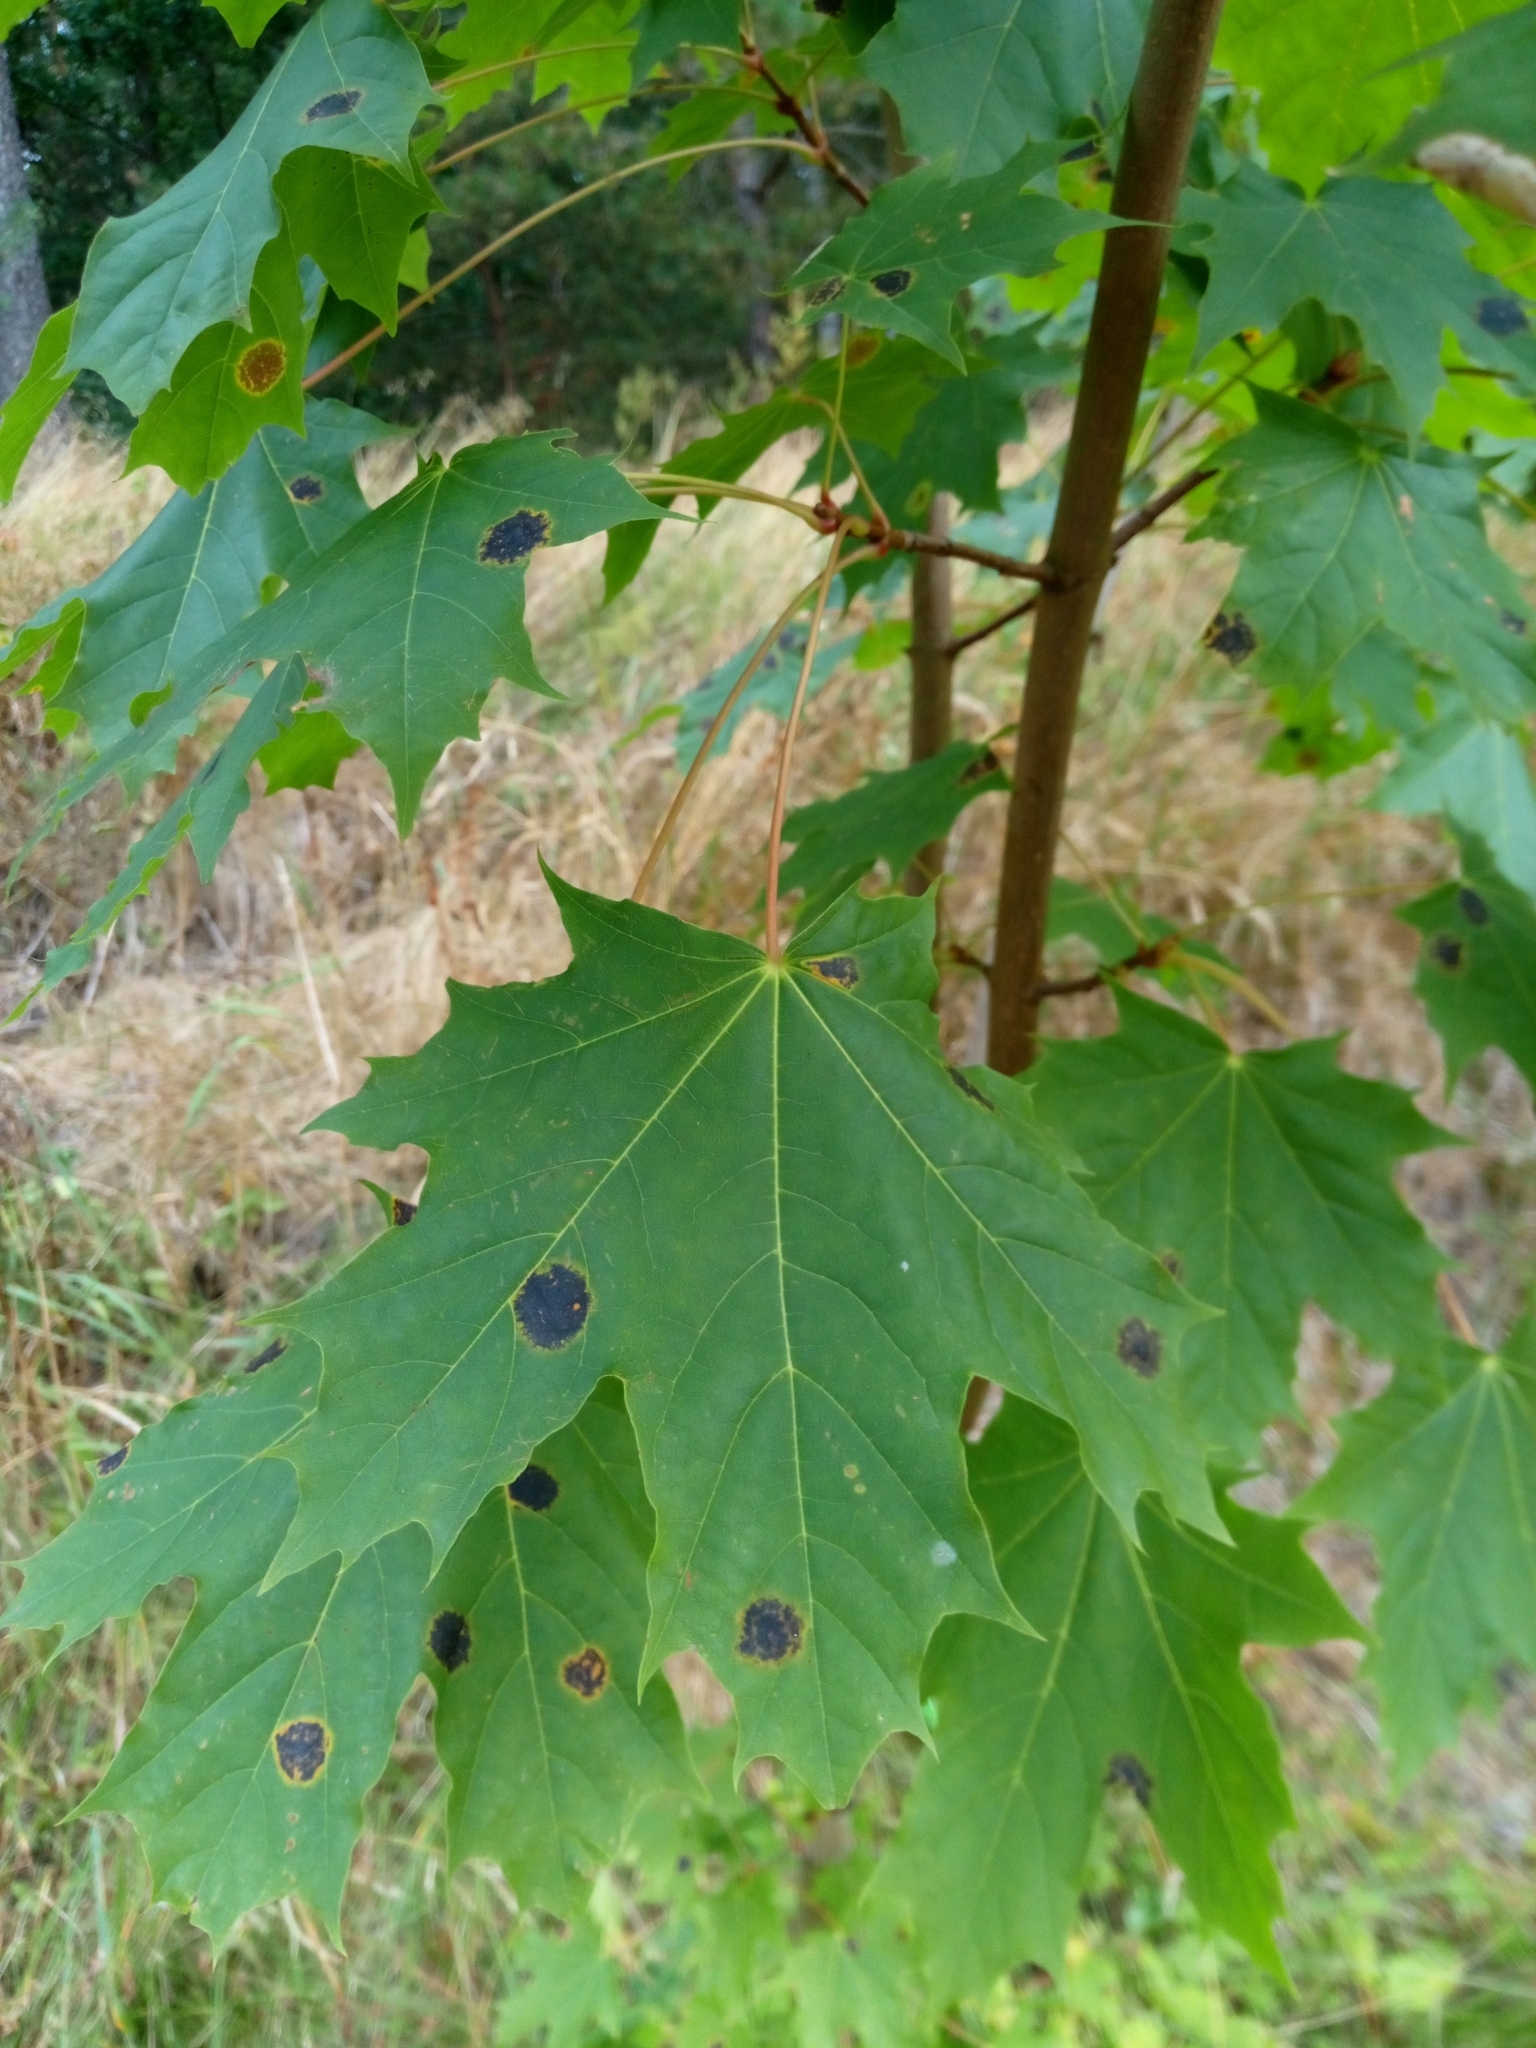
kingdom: Fungi
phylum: Ascomycota
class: Leotiomycetes
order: Rhytismatales
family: Rhytismataceae
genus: Rhytisma
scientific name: Rhytisma acerinum
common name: European tar spot
